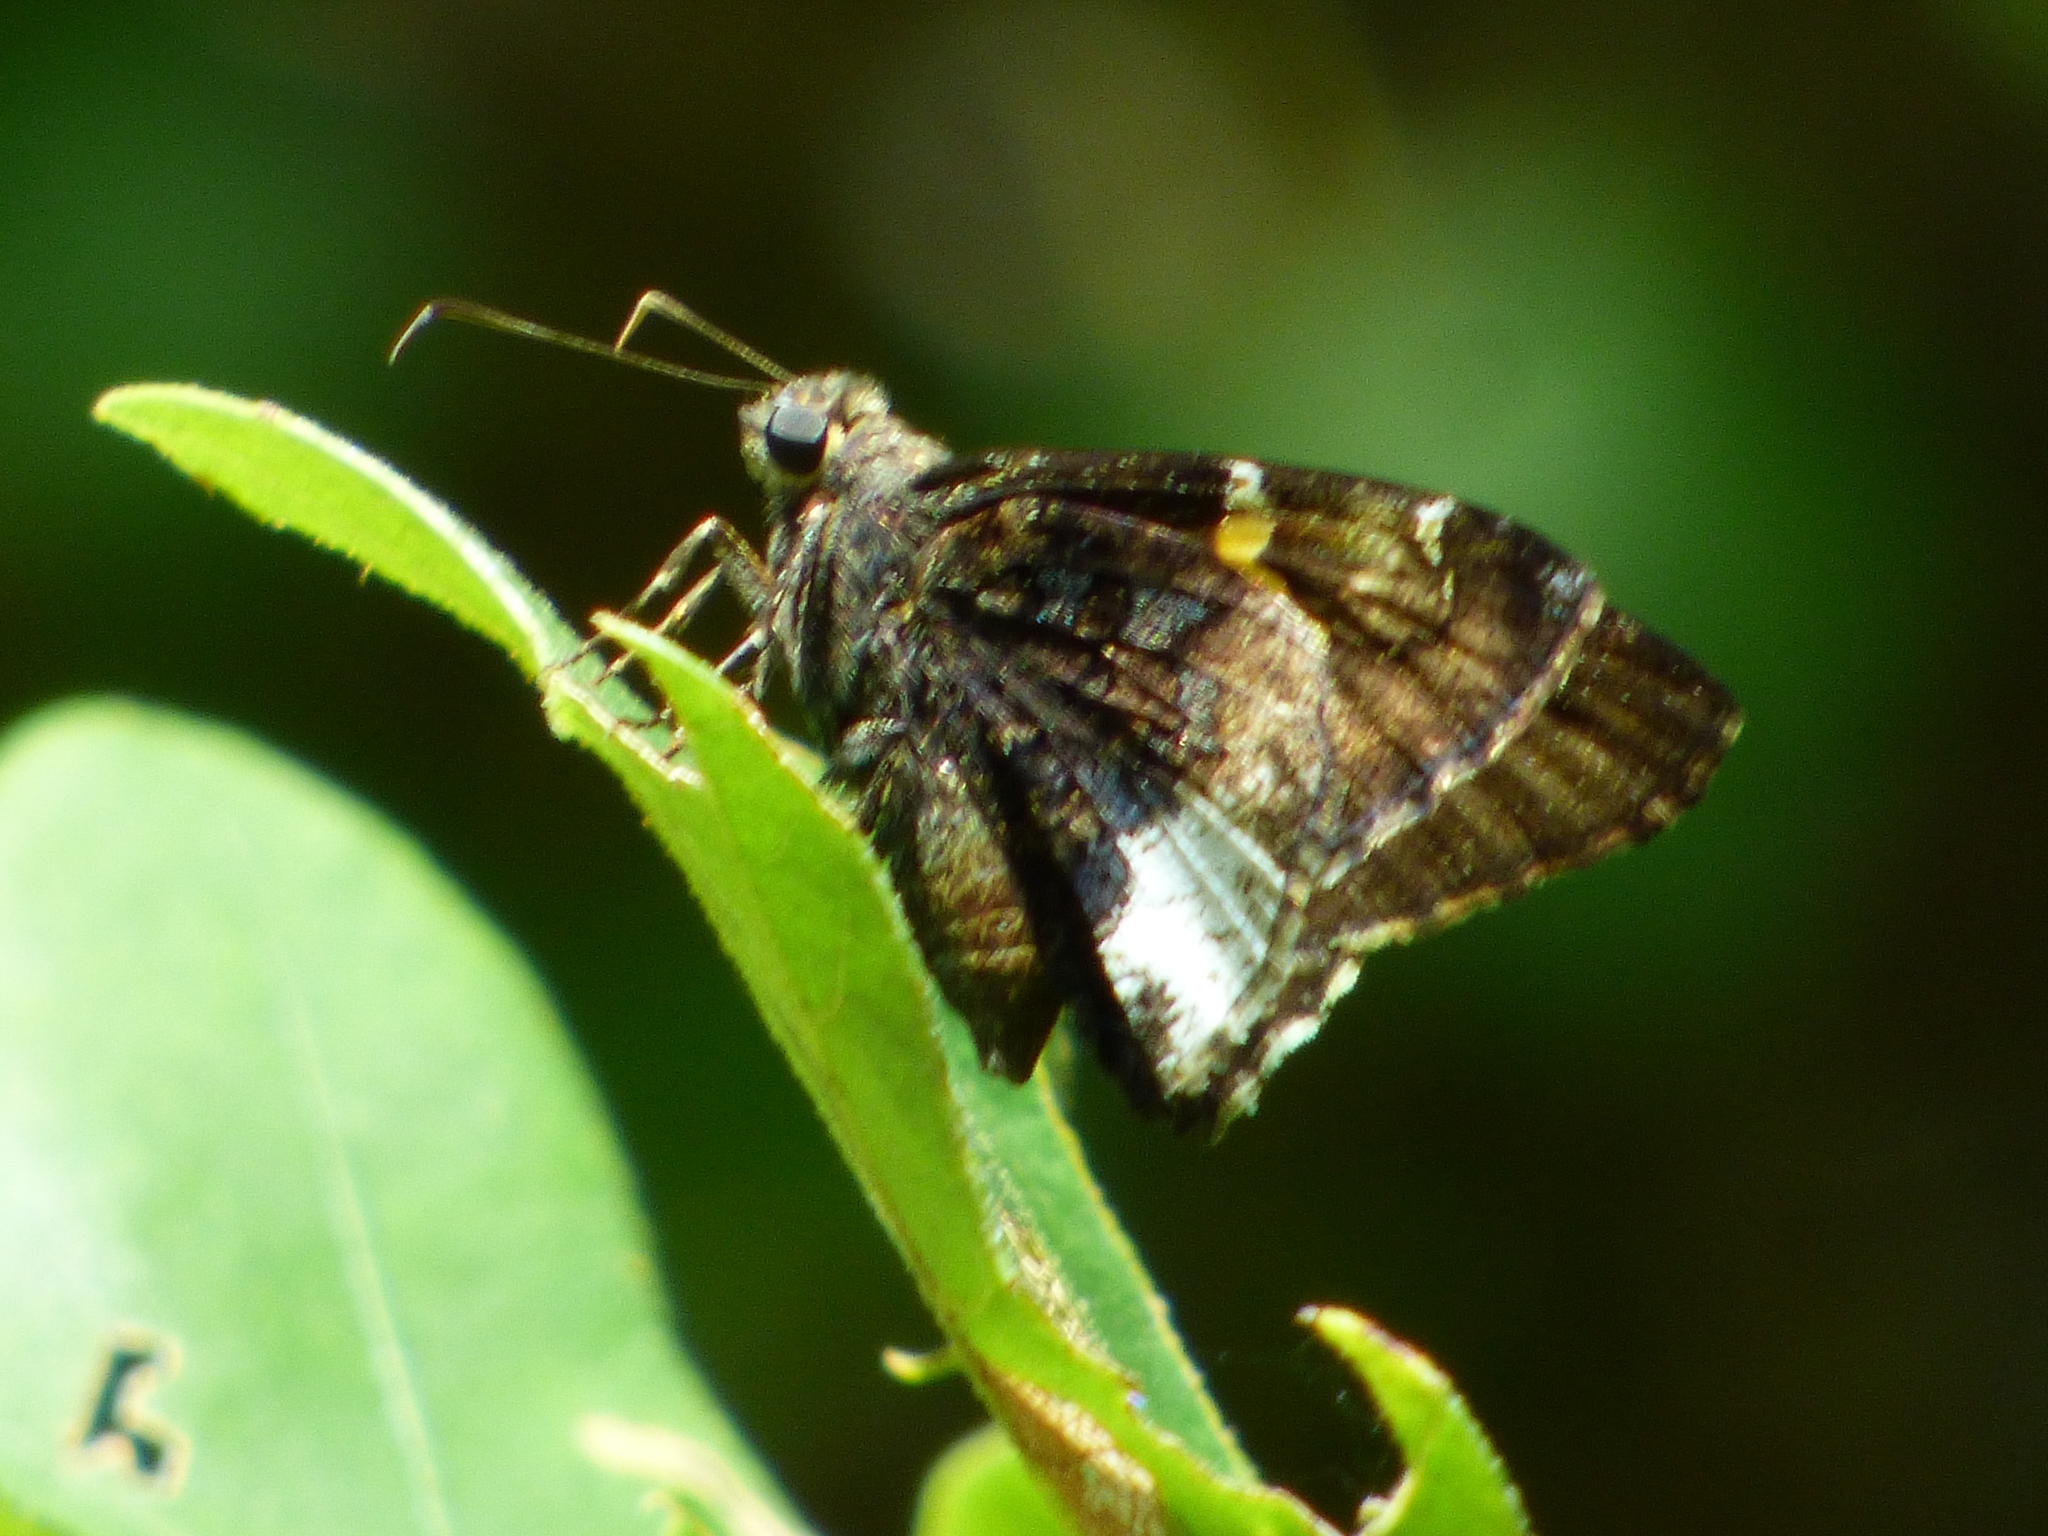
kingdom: Animalia
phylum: Arthropoda
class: Insecta
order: Lepidoptera
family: Hesperiidae
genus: Thorybes
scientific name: Thorybes lyciades
